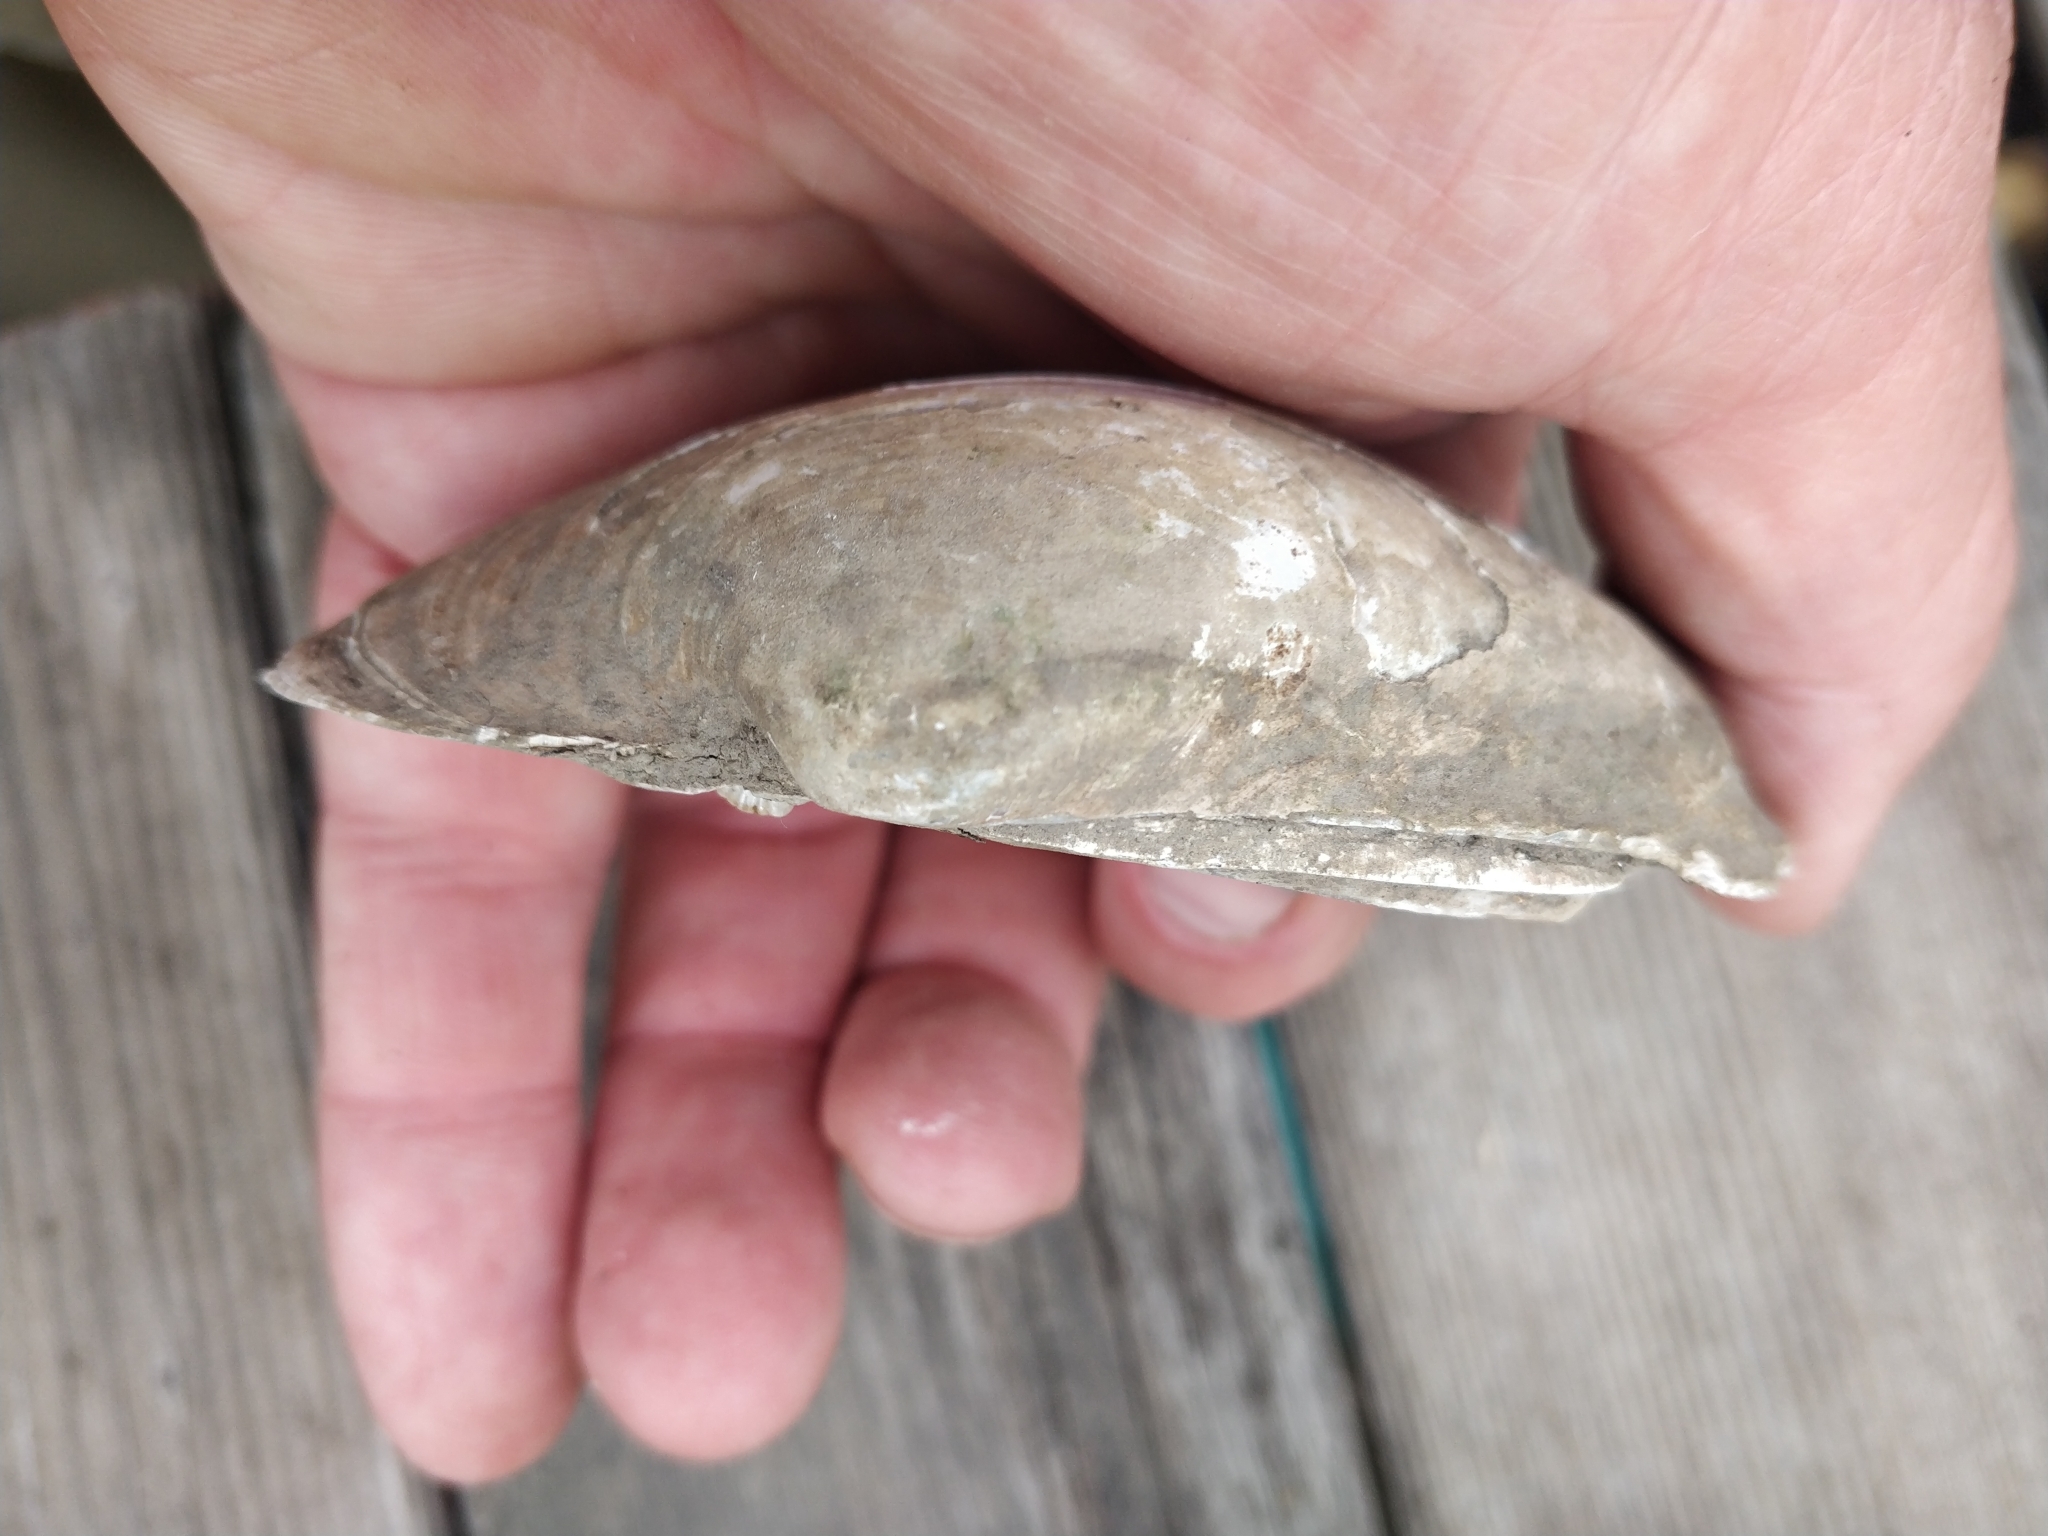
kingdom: Animalia
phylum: Mollusca
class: Bivalvia
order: Unionida
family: Unionidae
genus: Lampsilis
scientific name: Lampsilis cardium
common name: Plain pocketbook
